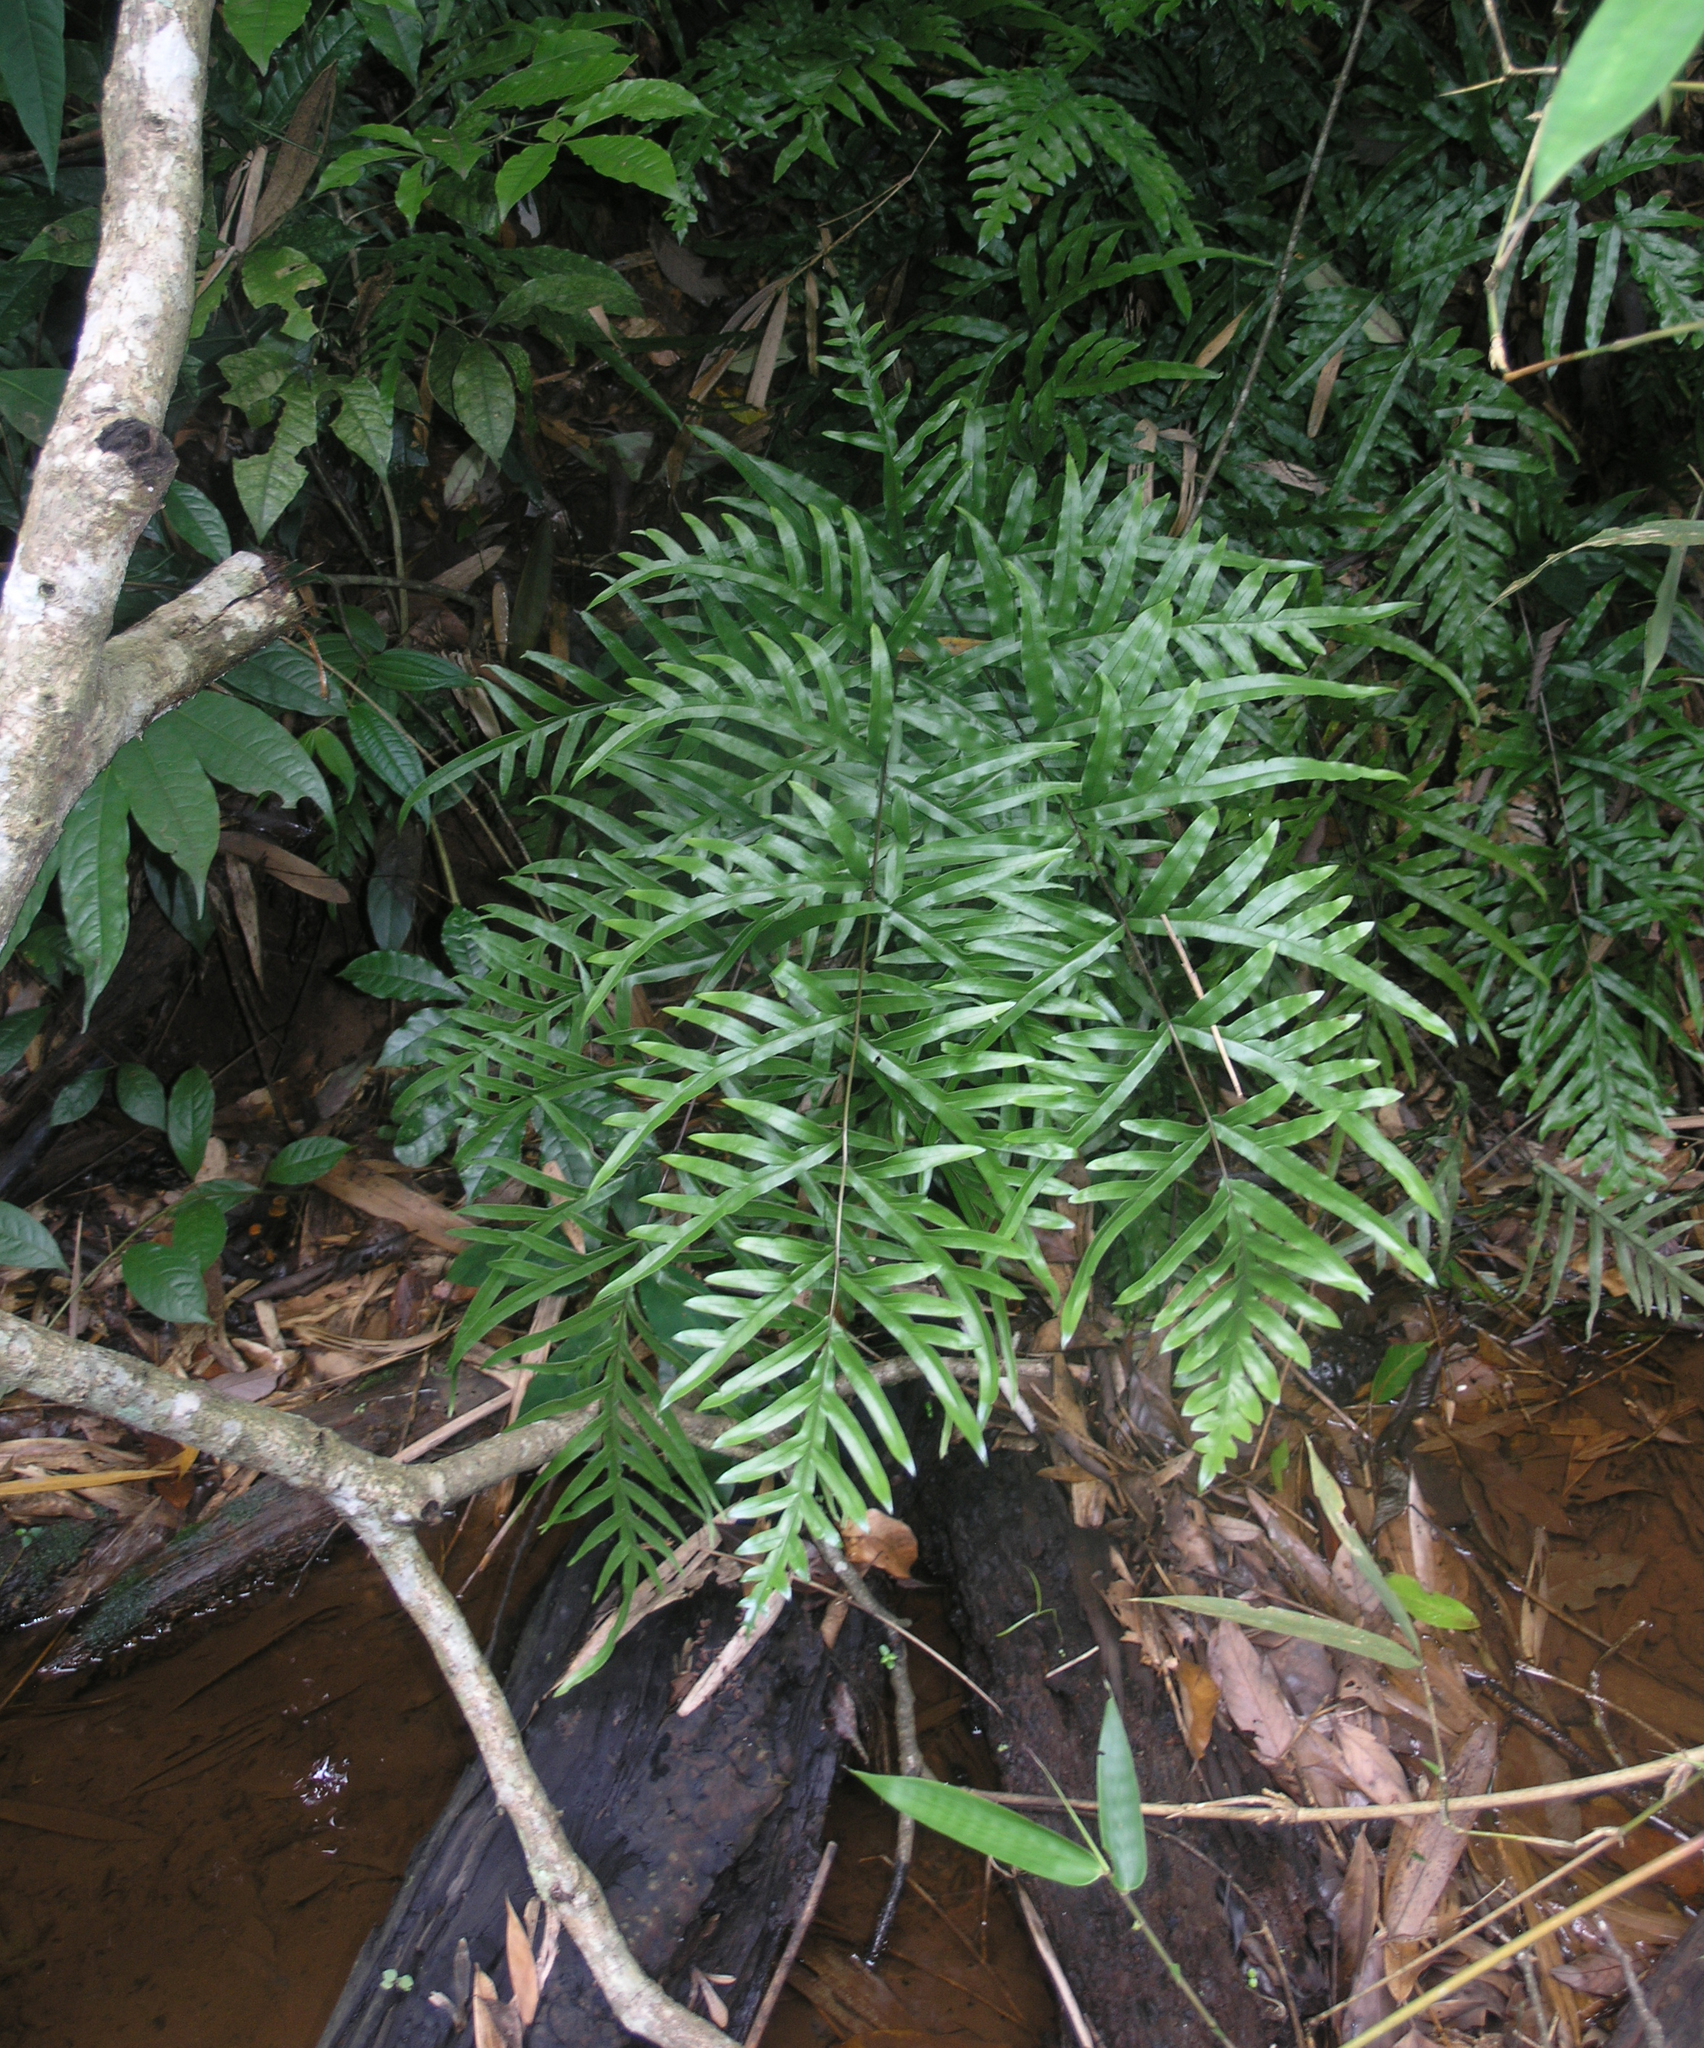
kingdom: Plantae
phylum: Tracheophyta
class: Polypodiopsida
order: Polypodiales
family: Pteridaceae
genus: Pteris
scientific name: Pteris semipinnata
